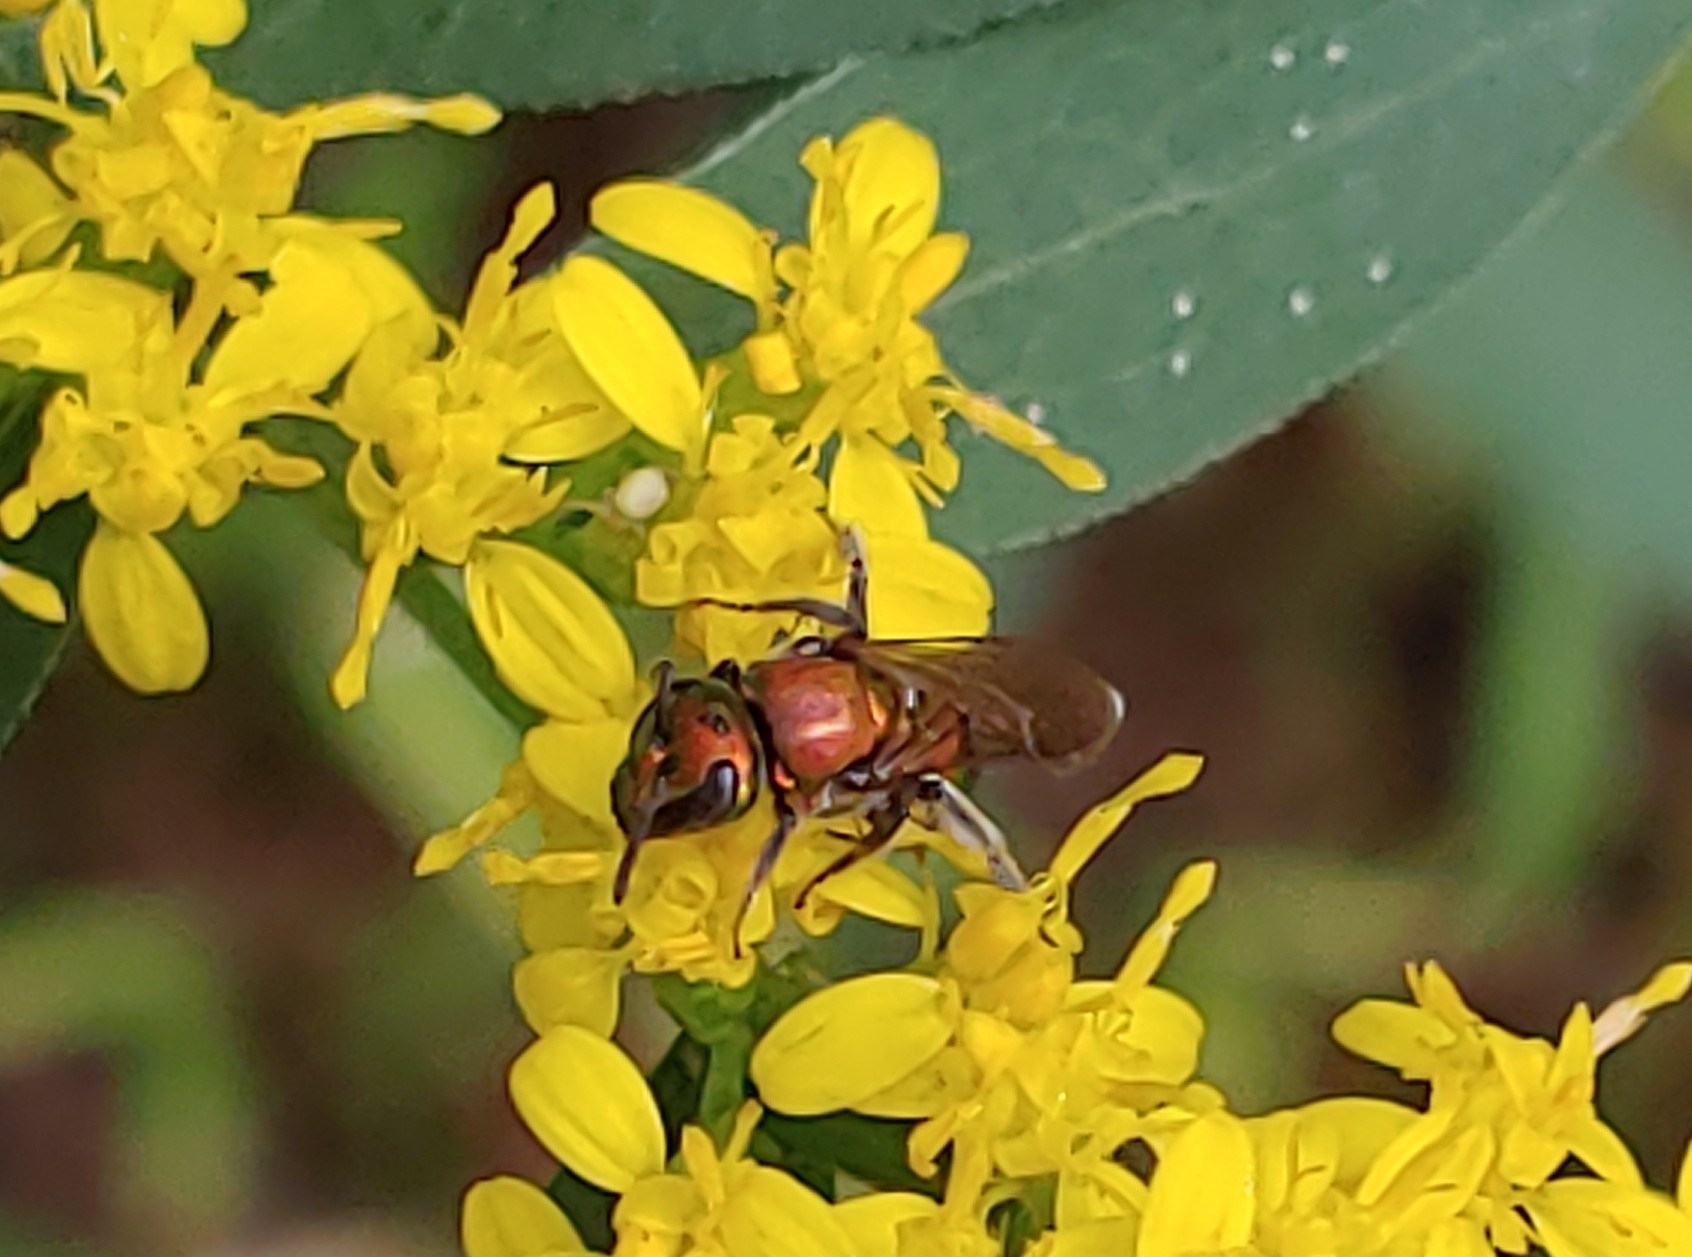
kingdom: Animalia
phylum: Arthropoda
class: Insecta
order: Hymenoptera
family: Halictidae
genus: Augochlora
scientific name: Augochlora pura
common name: Pure green sweat bee
